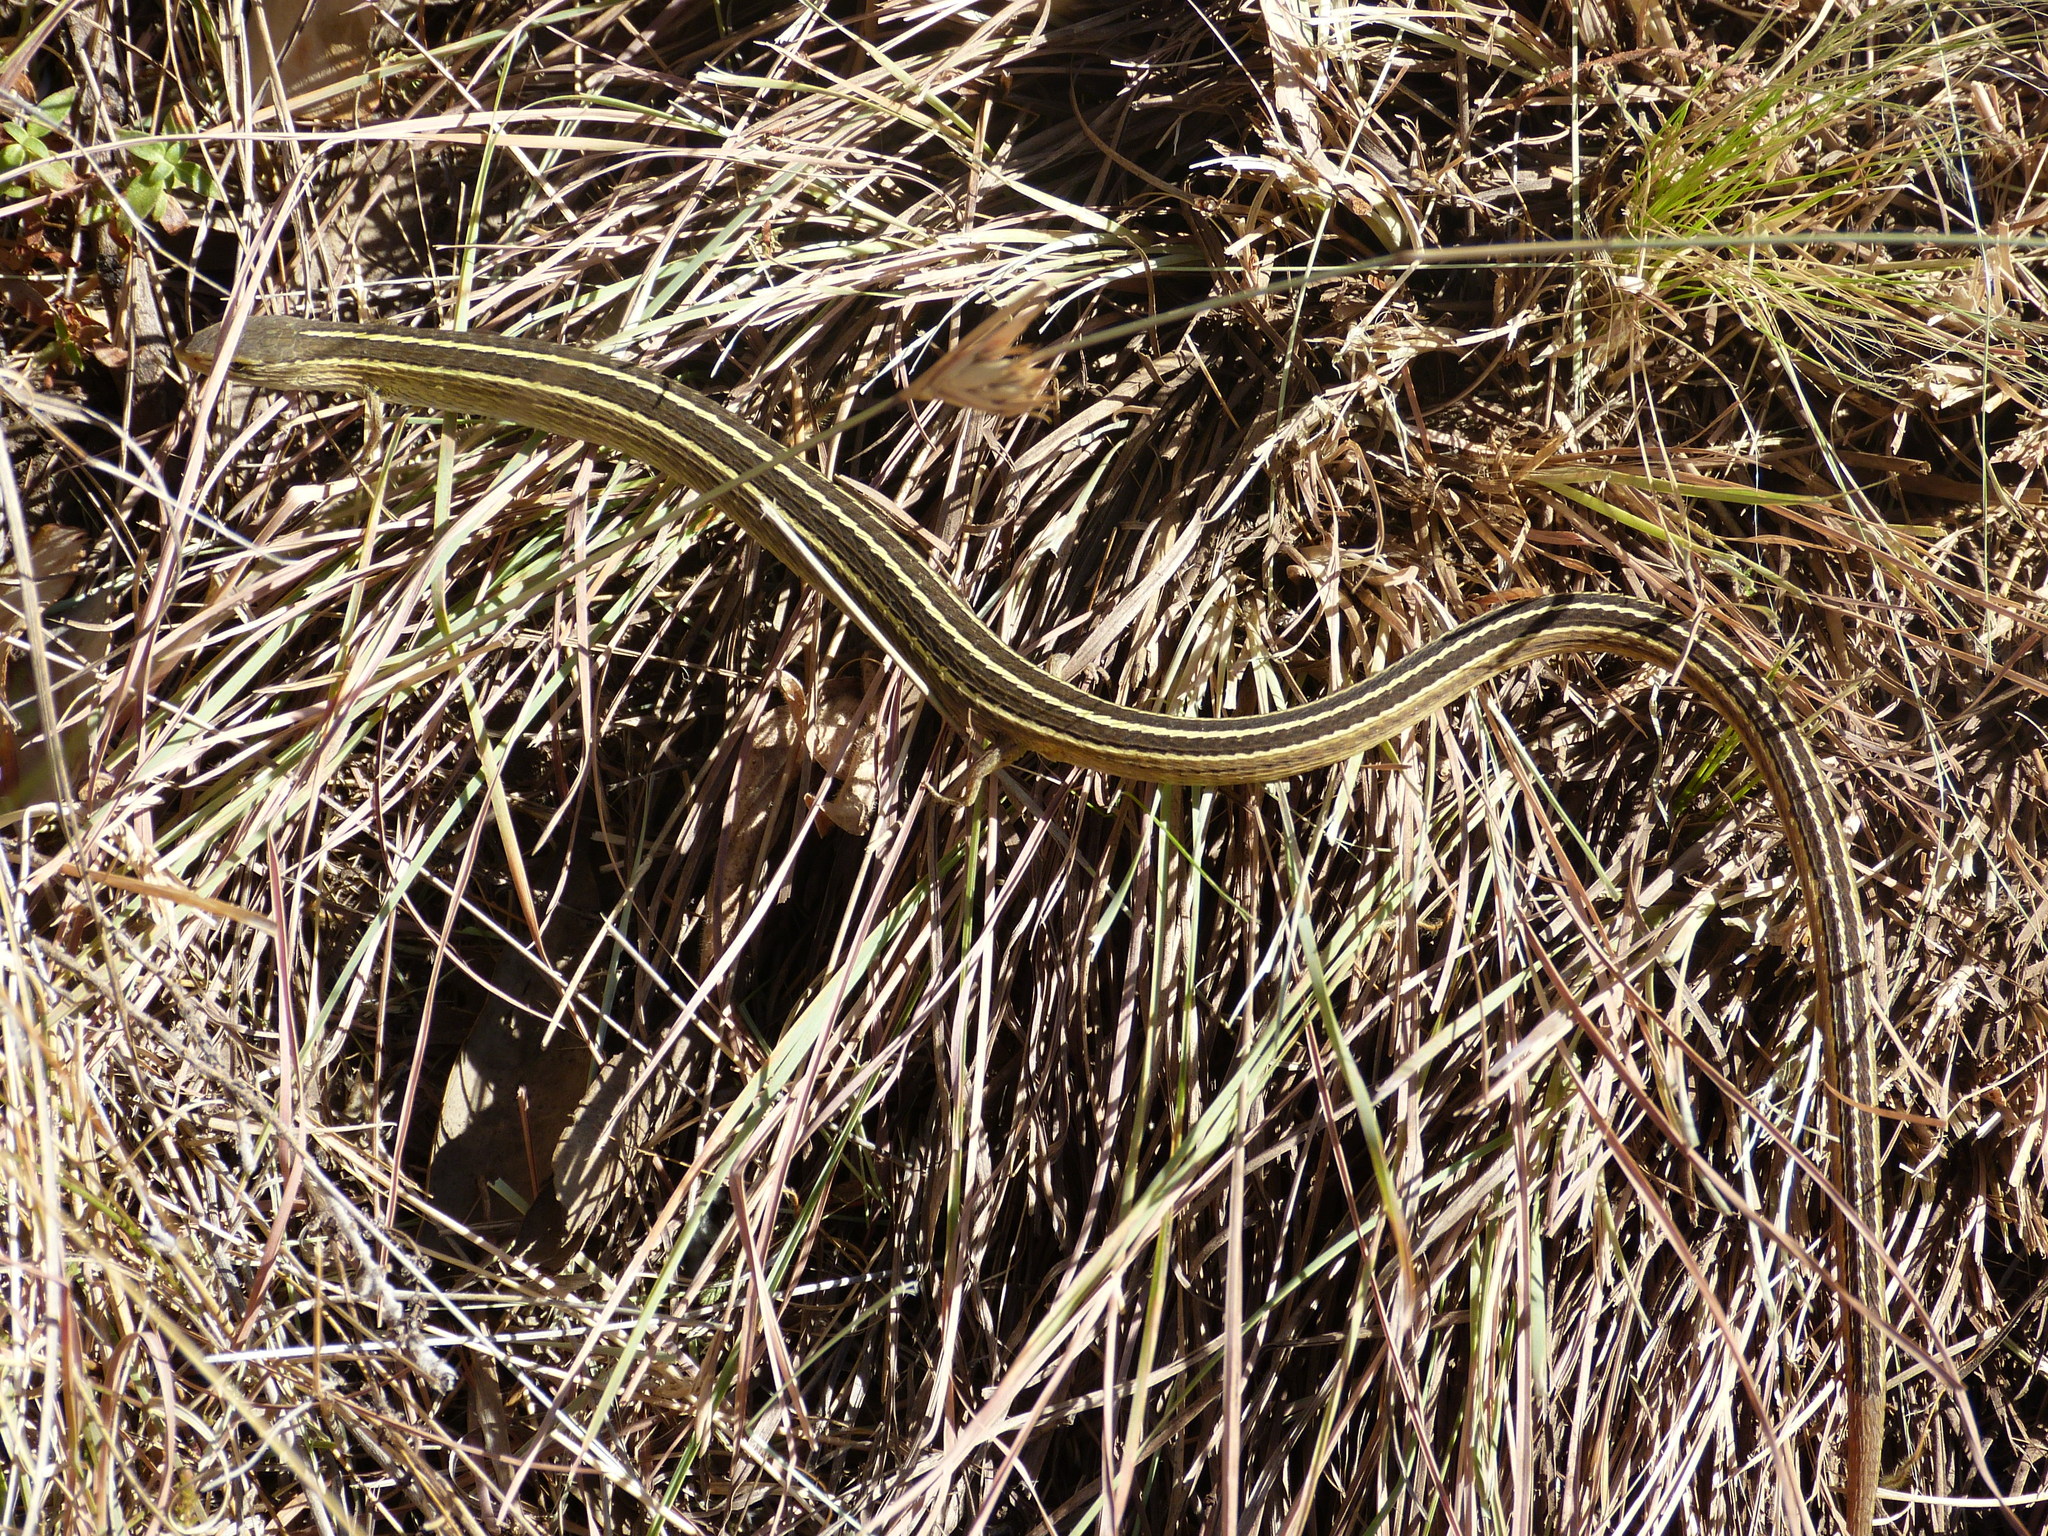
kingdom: Animalia
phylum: Chordata
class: Squamata
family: Cordylidae
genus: Chamaesaura
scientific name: Chamaesaura aenea
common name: Coppery grass lizard
